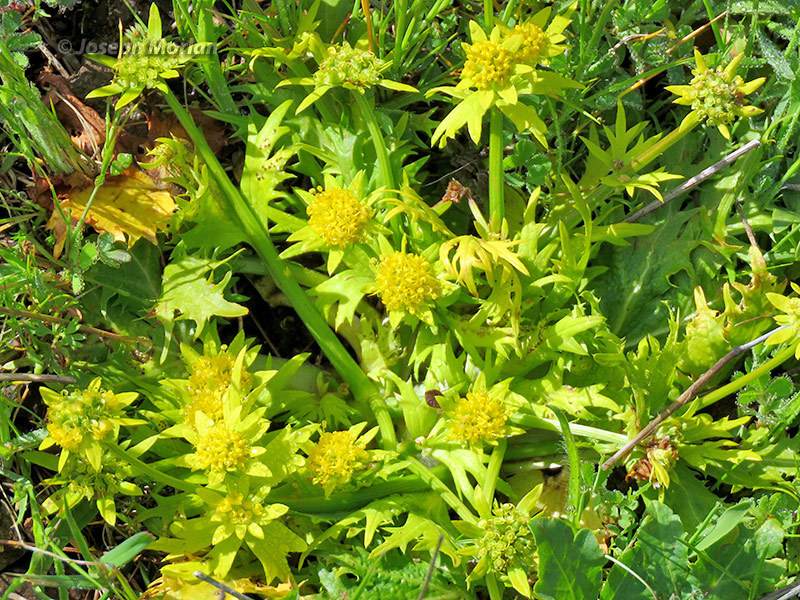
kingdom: Plantae
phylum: Tracheophyta
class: Magnoliopsida
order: Apiales
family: Apiaceae
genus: Sanicula
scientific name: Sanicula arctopoides
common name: Footsteps-of-spring
